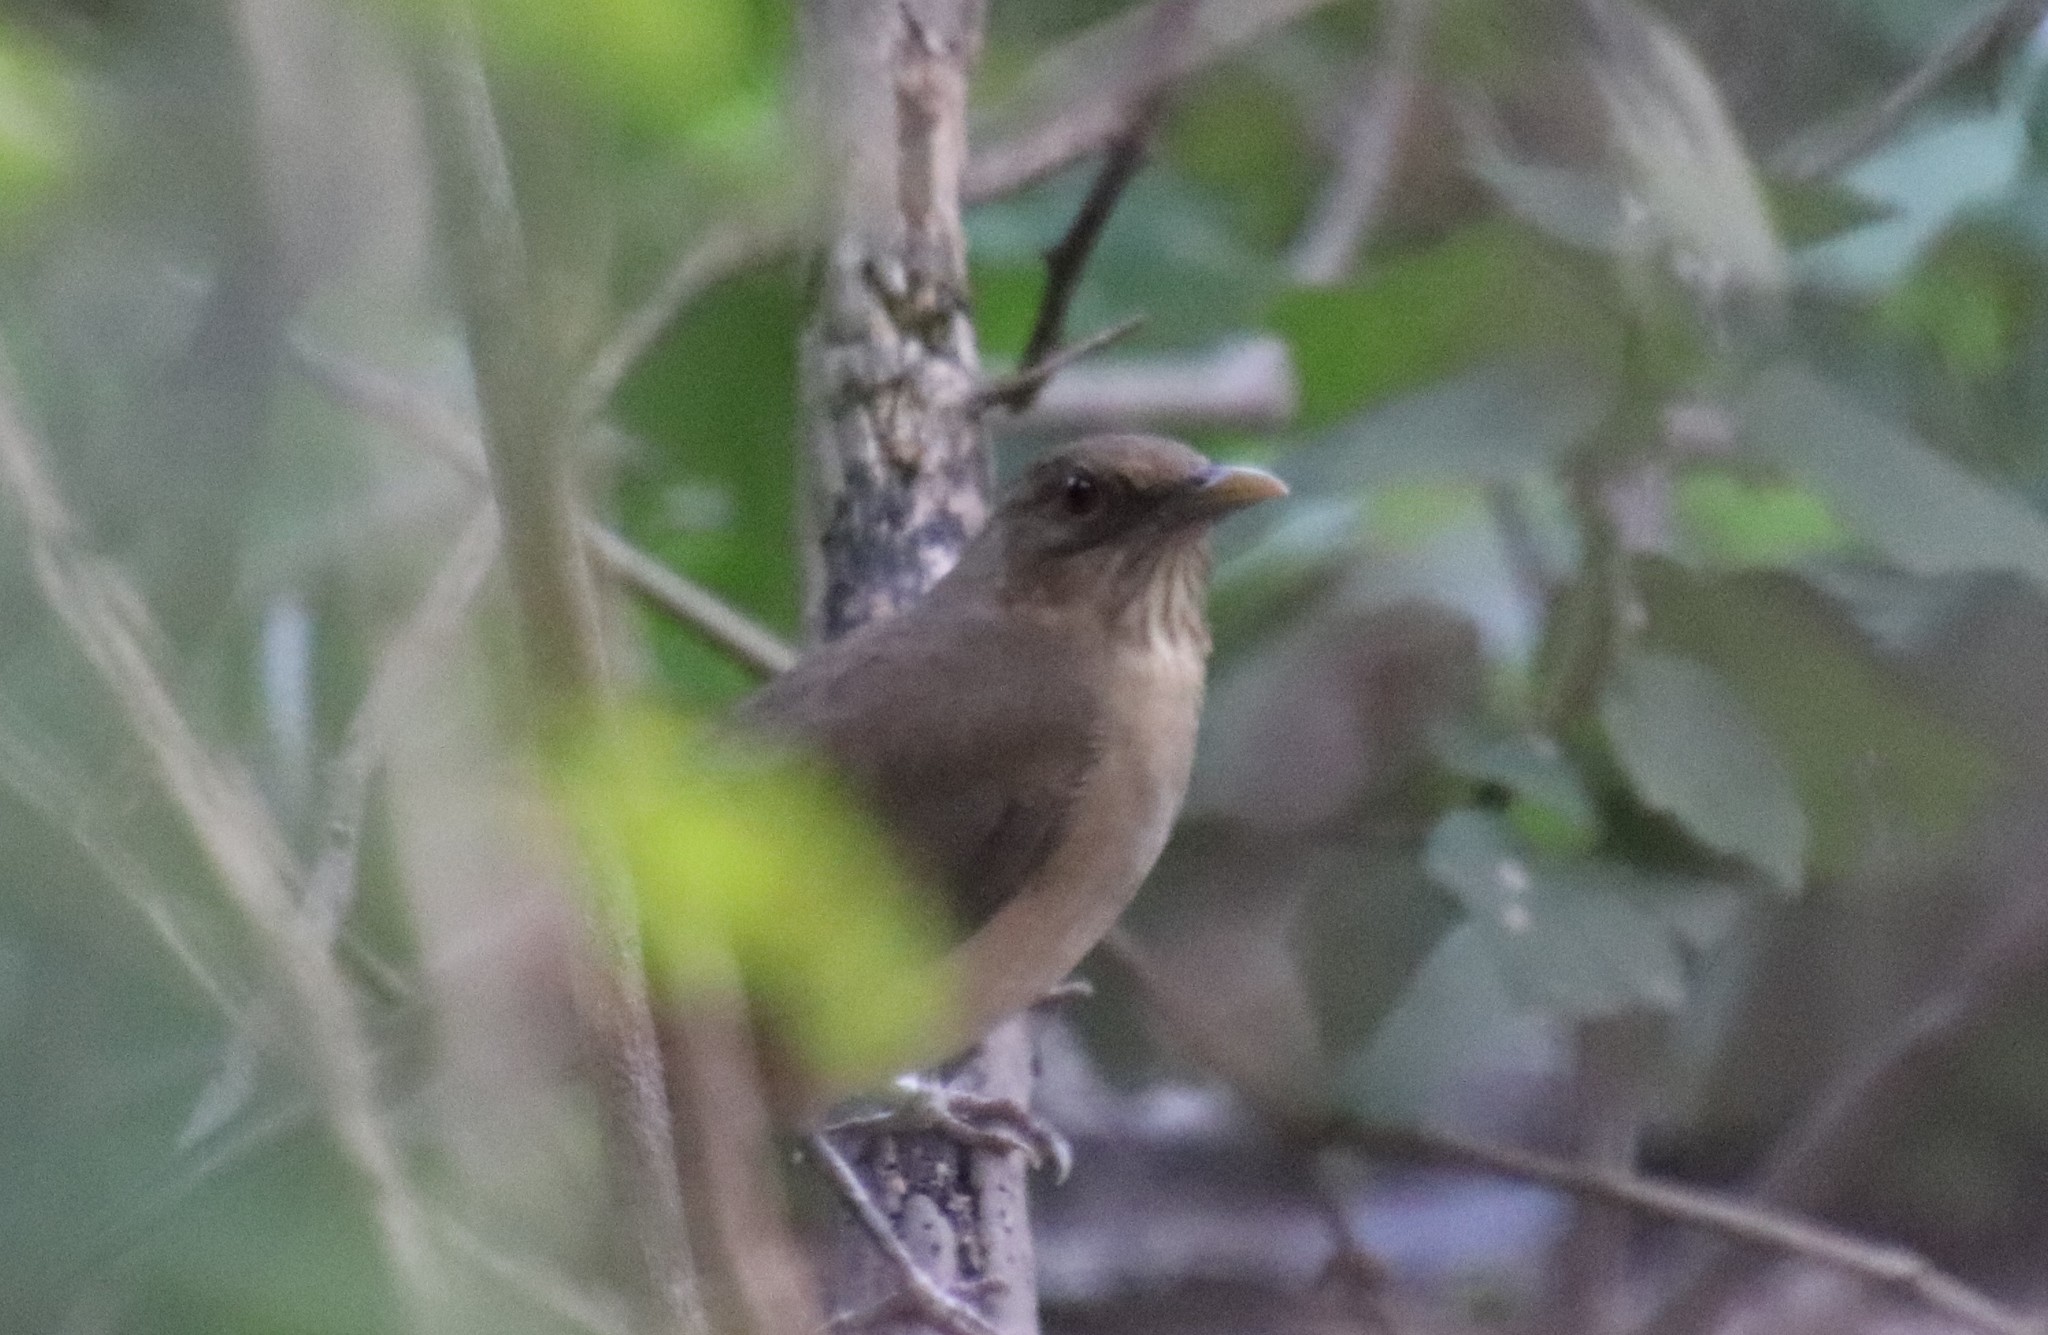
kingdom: Animalia
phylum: Chordata
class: Aves
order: Passeriformes
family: Turdidae
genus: Turdus
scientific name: Turdus grayi
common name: Clay-colored thrush
